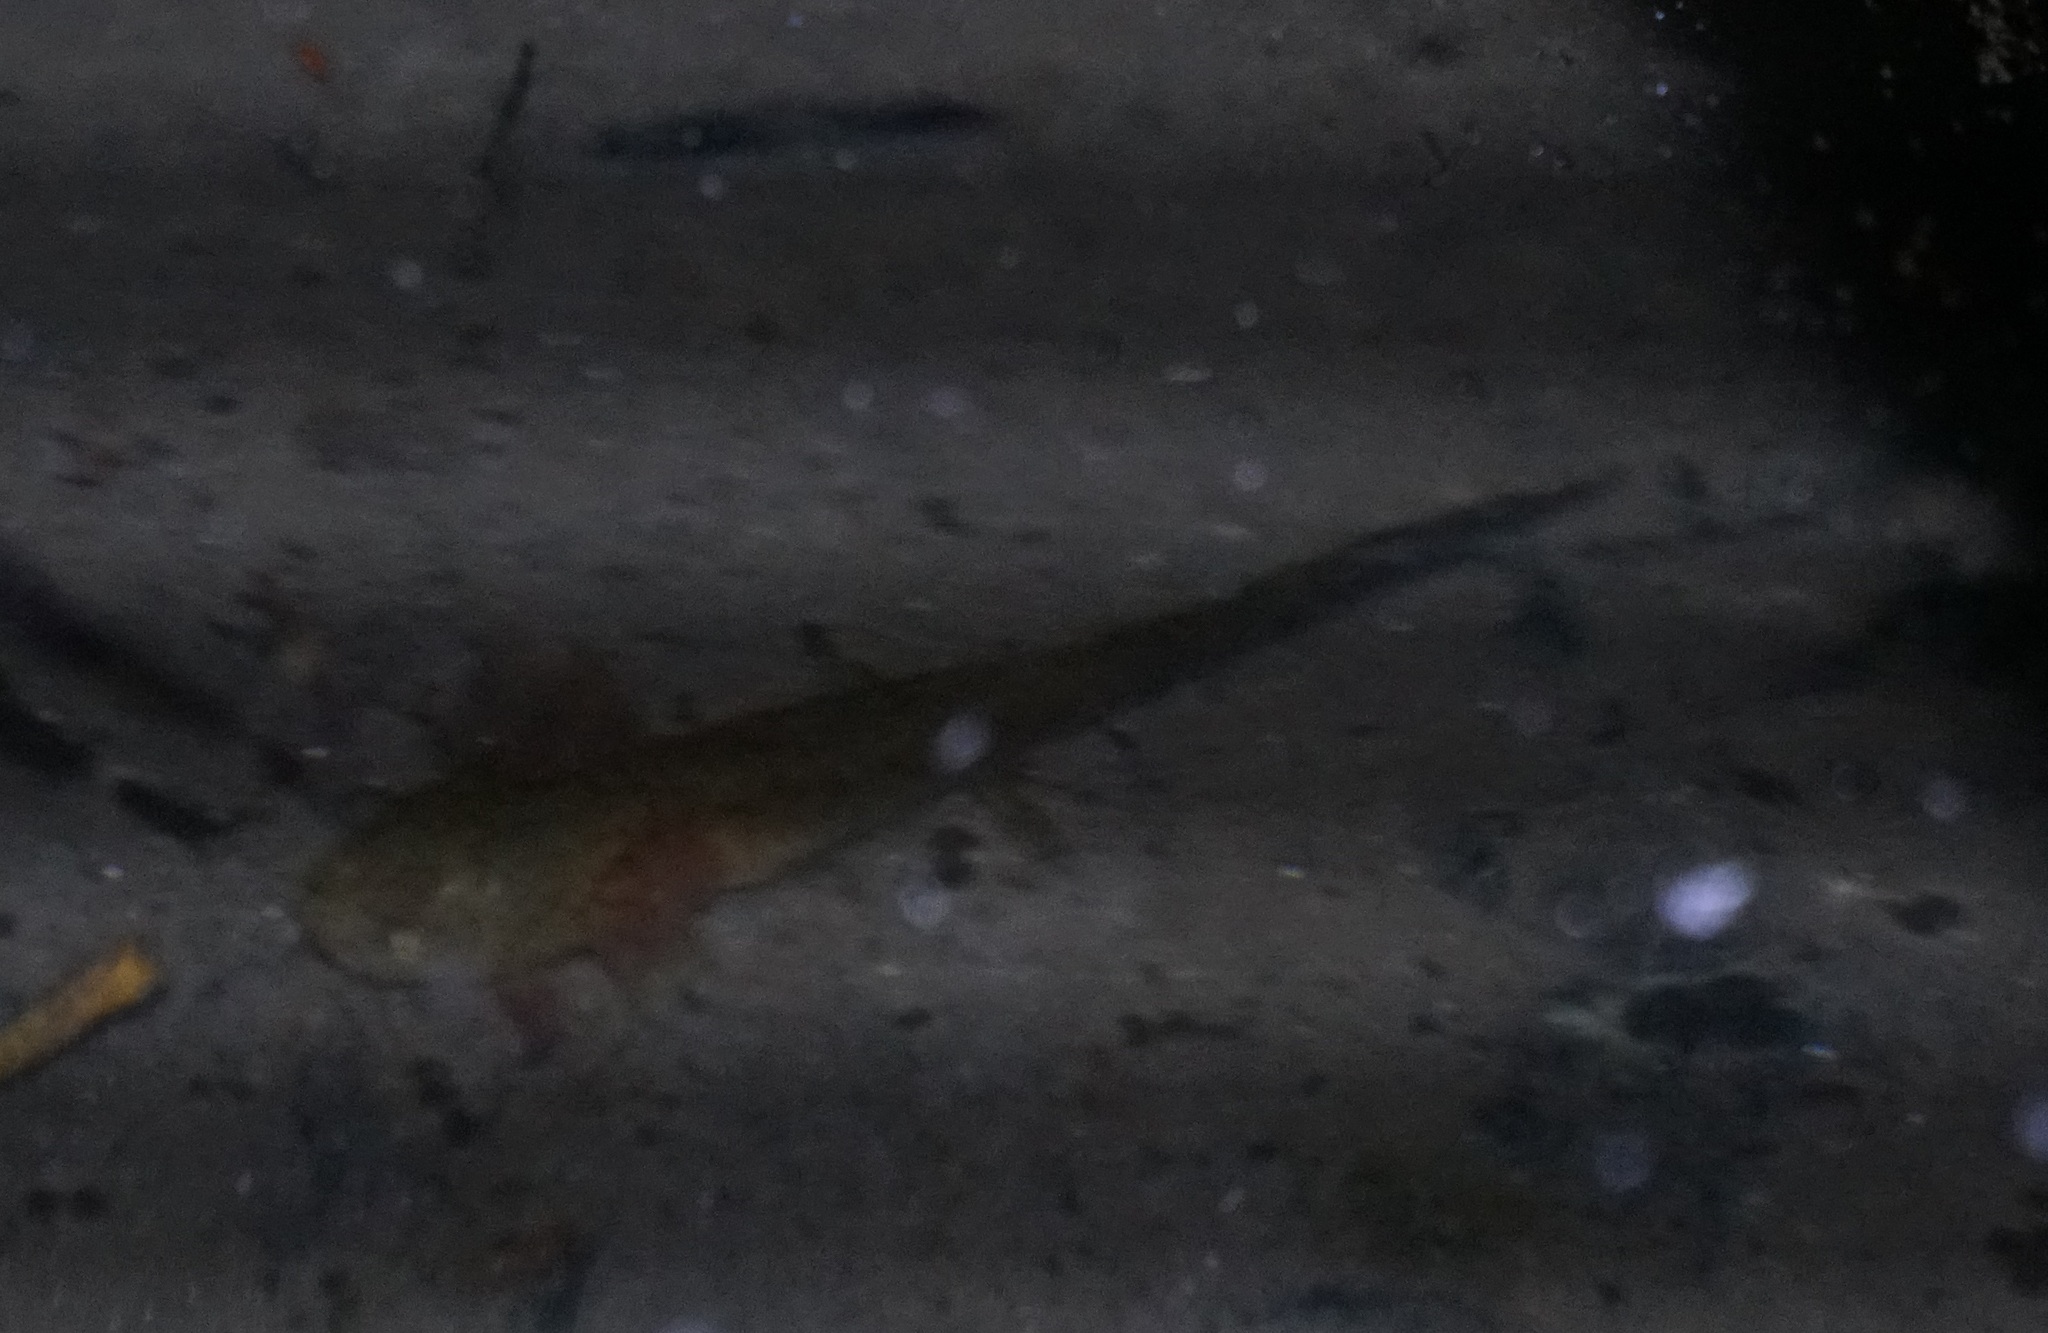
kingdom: Animalia
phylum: Chordata
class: Amphibia
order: Caudata
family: Hynobiidae
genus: Hynobius
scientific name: Hynobius leechii
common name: Gensan salamander
